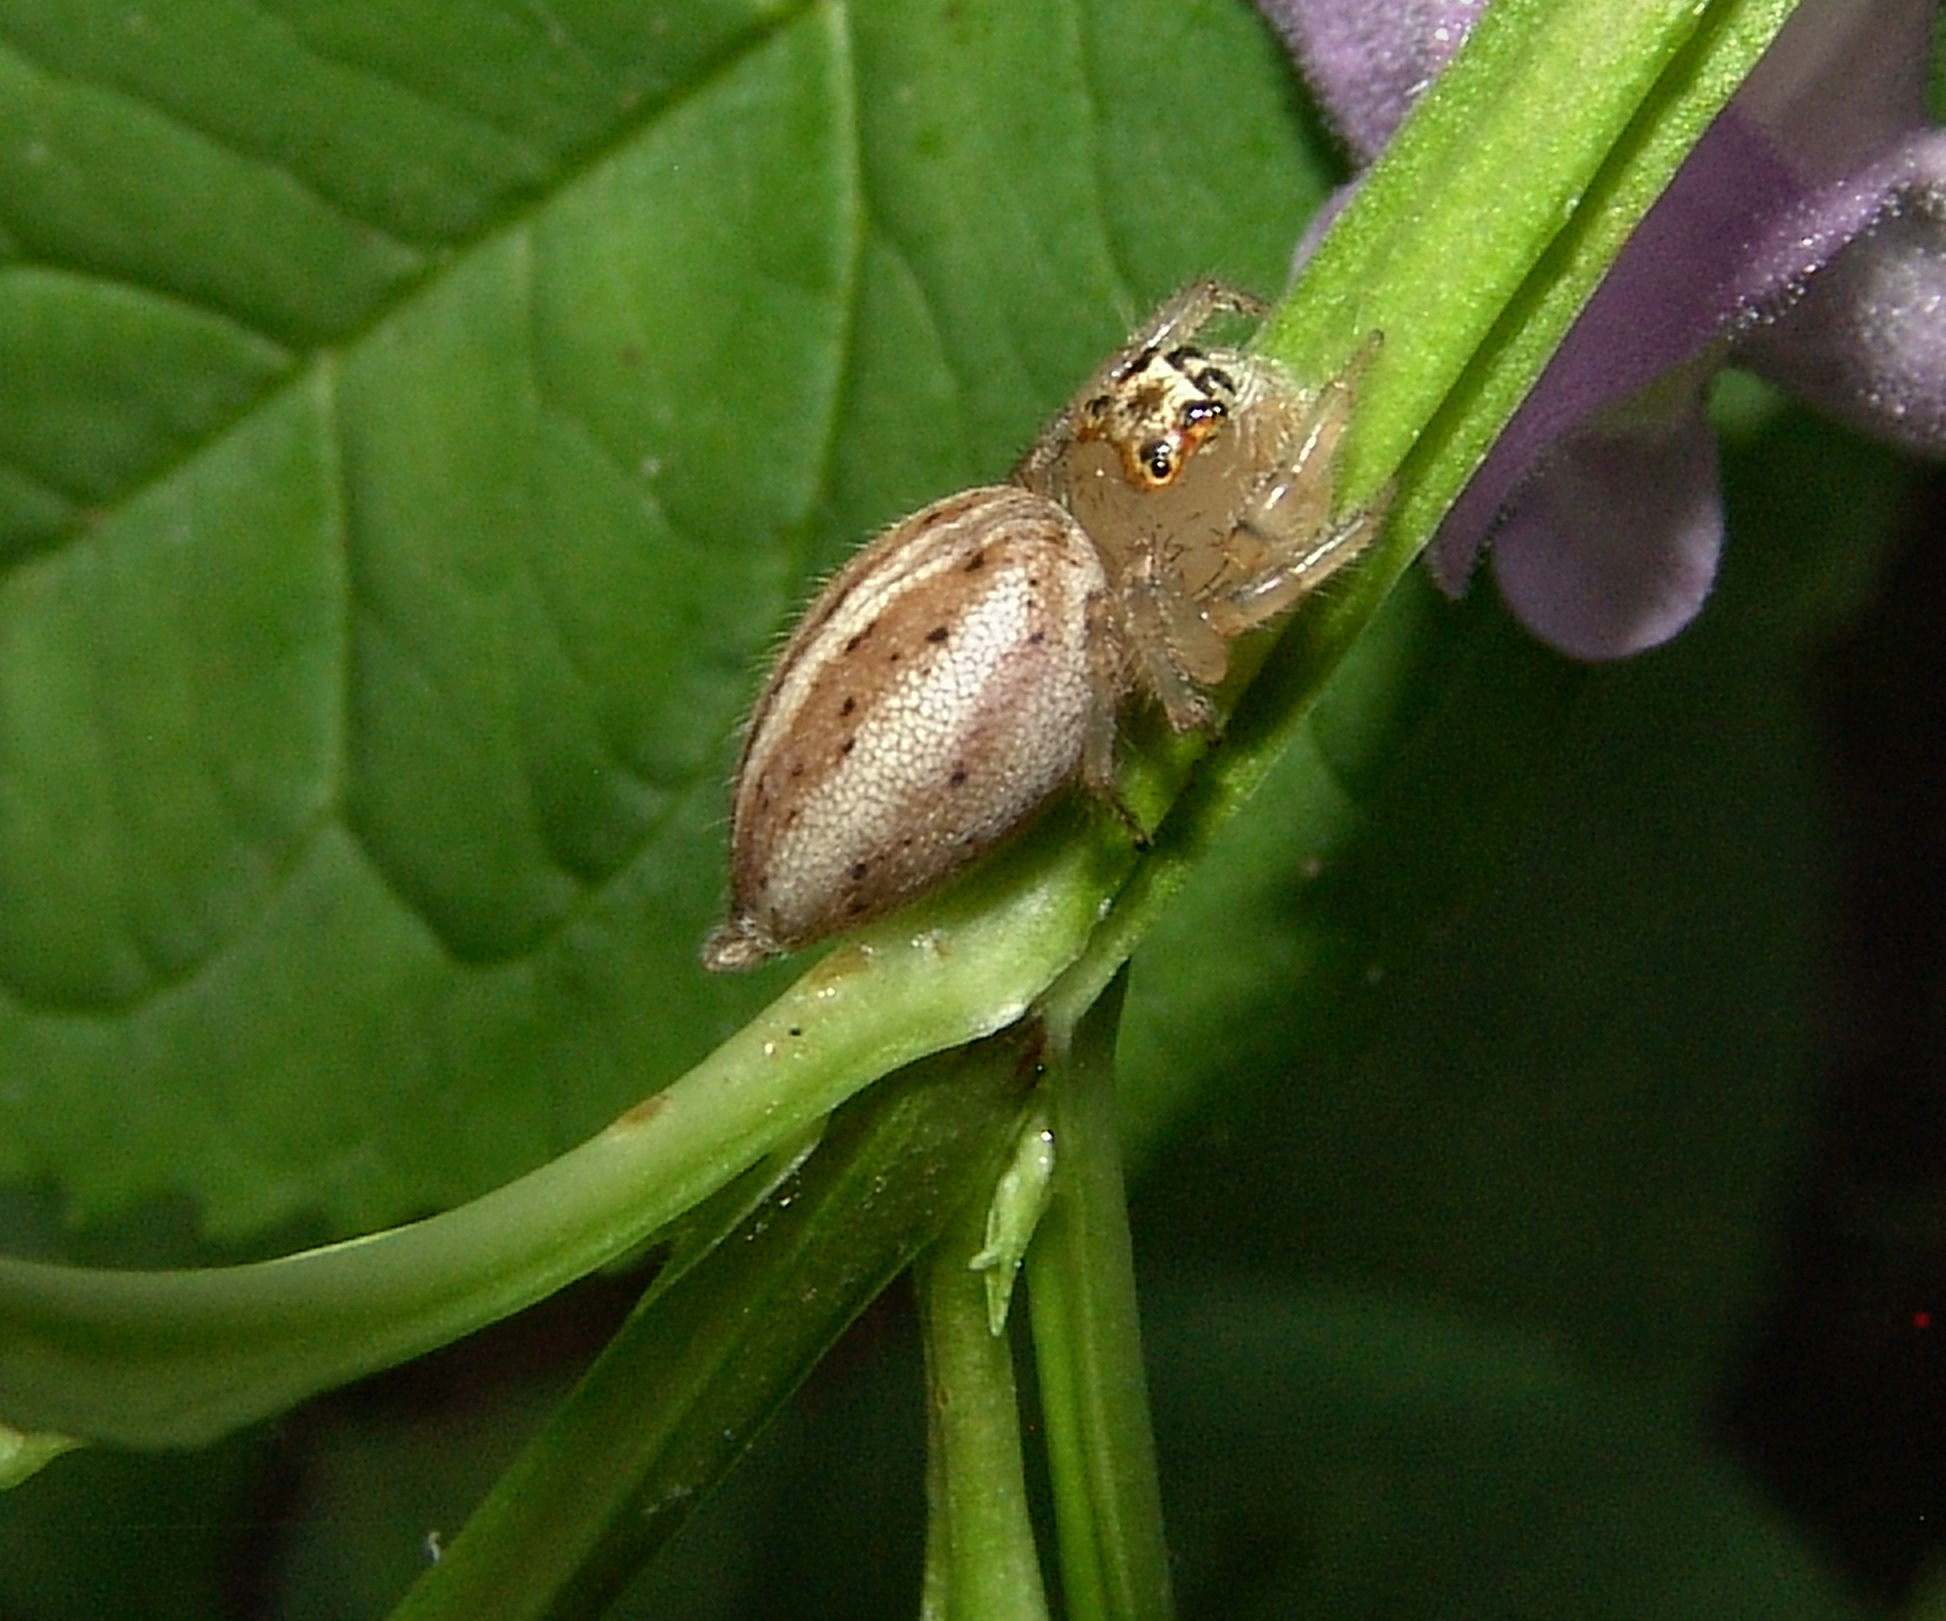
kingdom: Animalia
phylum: Arthropoda
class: Arachnida
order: Araneae
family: Salticidae
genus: Colonus
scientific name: Colonus sylvanus
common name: Jumping spiders
